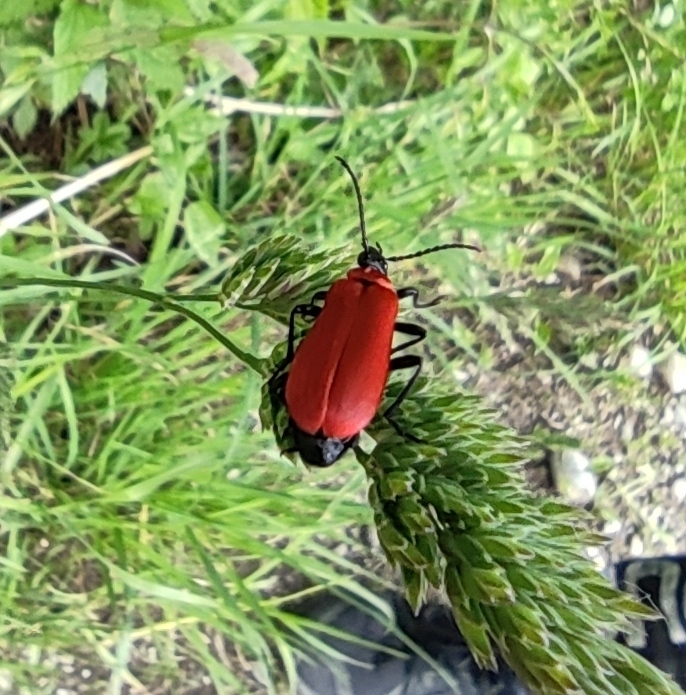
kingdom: Animalia
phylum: Arthropoda
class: Insecta
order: Coleoptera
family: Pyrochroidae
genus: Pyrochroa
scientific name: Pyrochroa coccinea
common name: Black-headed cardinal beetle
